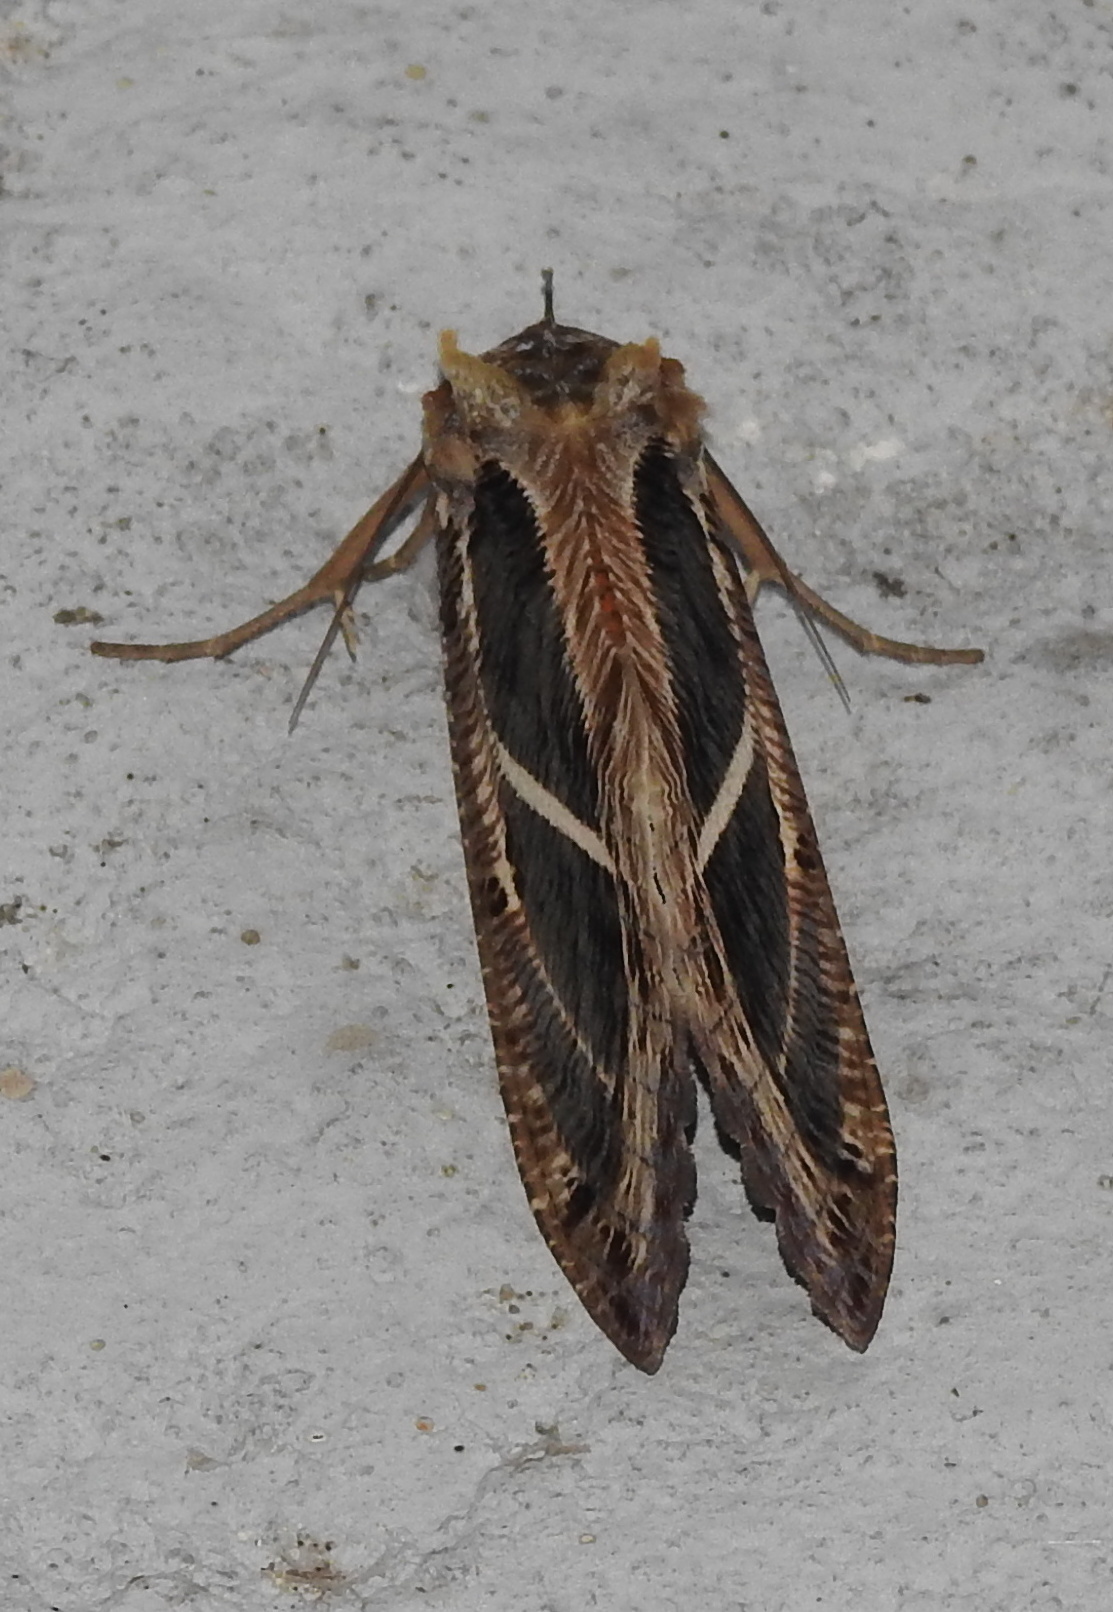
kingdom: Animalia
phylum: Arthropoda
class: Insecta
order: Lepidoptera
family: Erebidae
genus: Eudocima
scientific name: Eudocima materna
